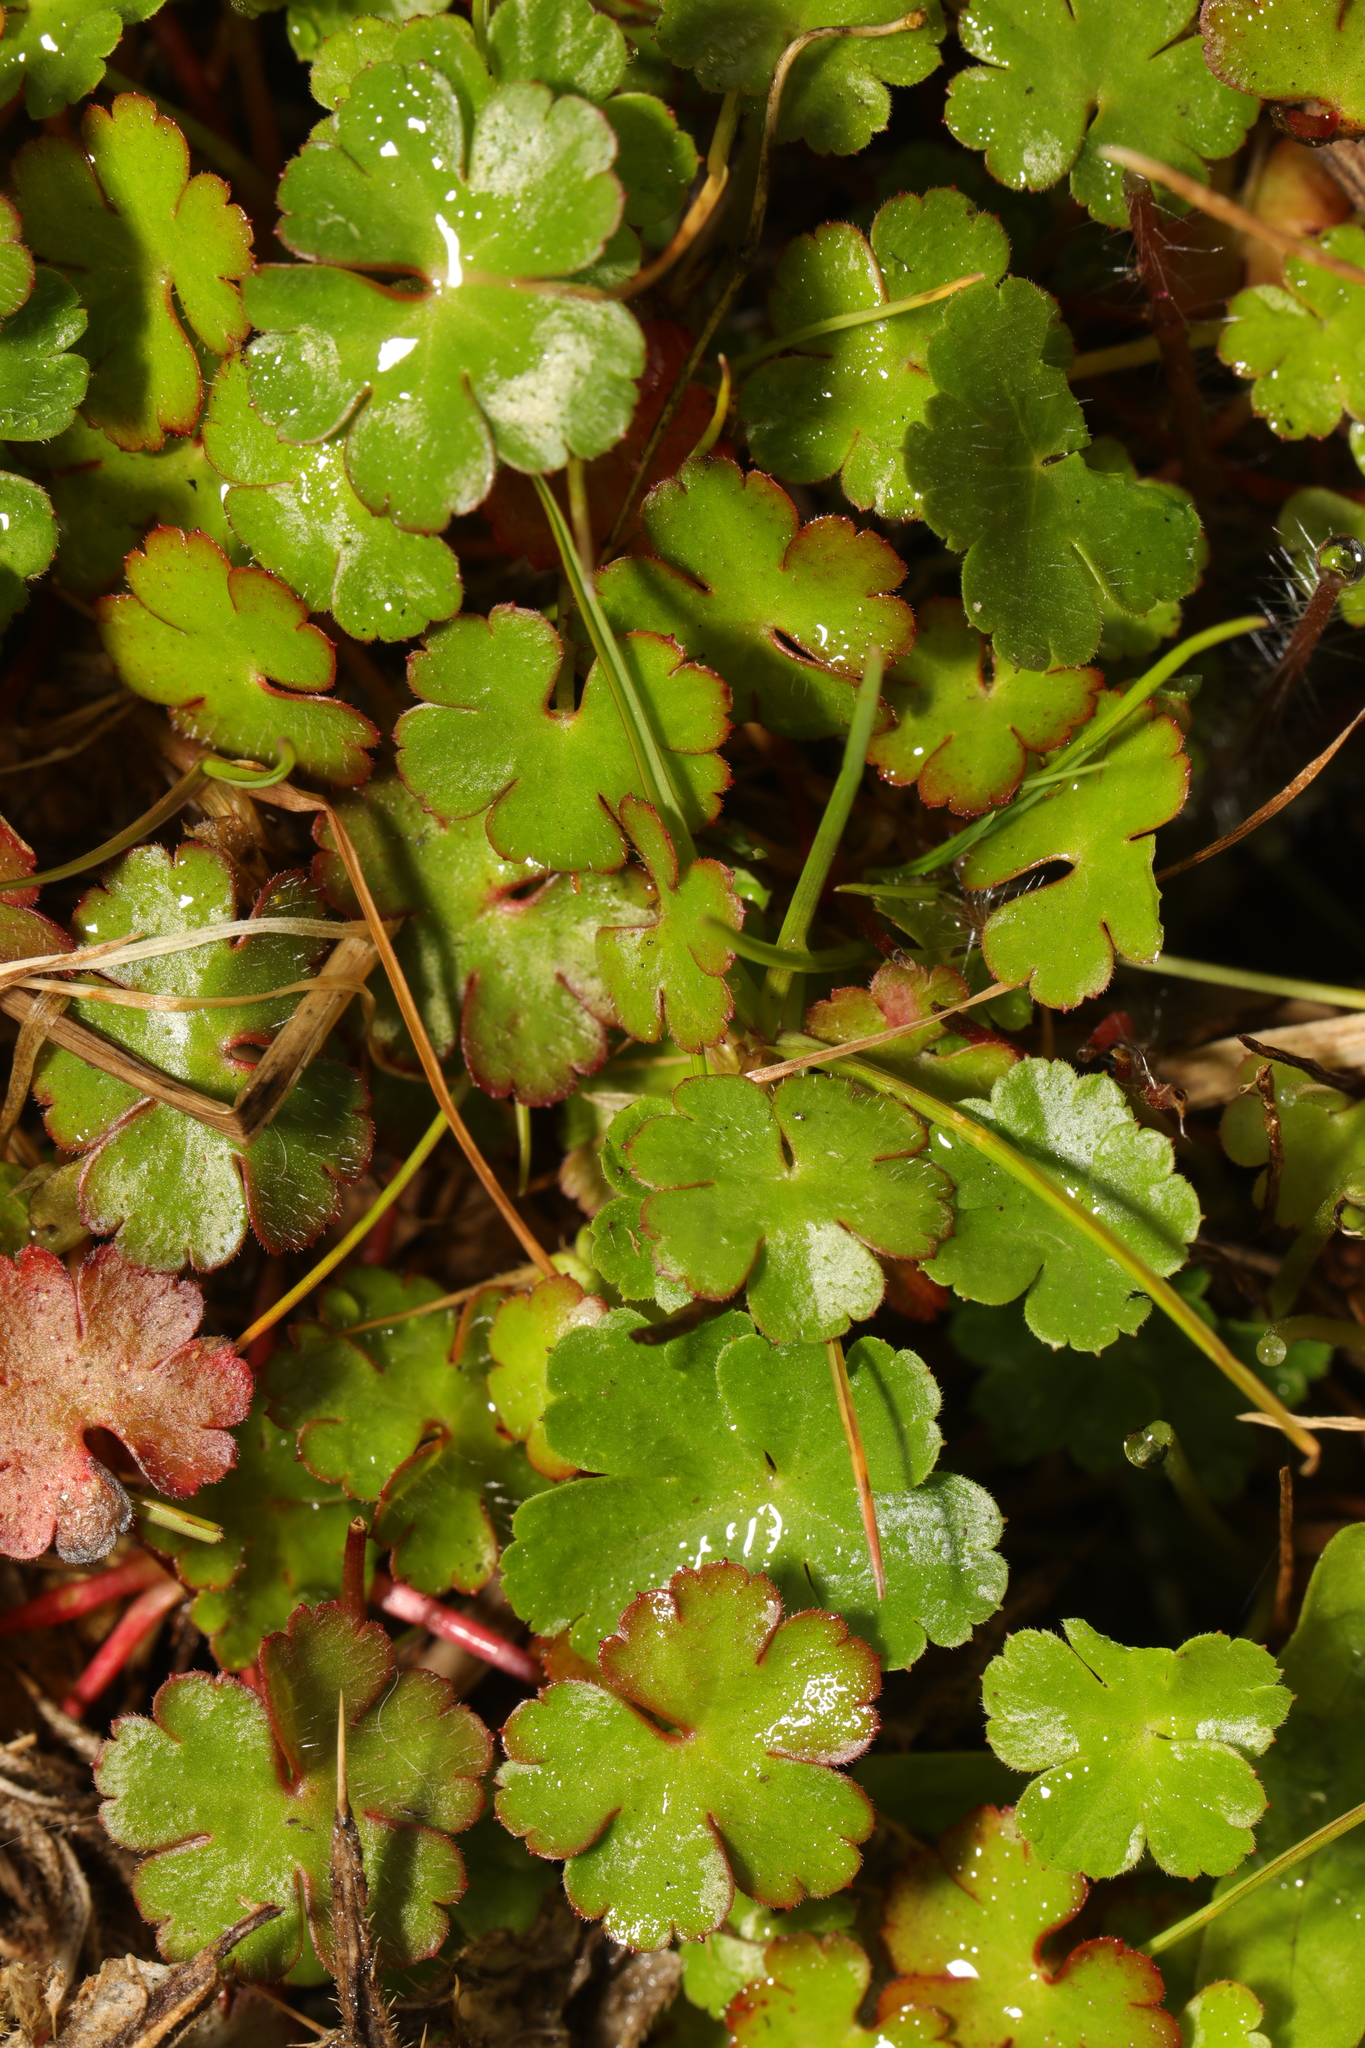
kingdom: Plantae
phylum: Tracheophyta
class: Magnoliopsida
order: Geraniales
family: Geraniaceae
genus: Geranium
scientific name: Geranium lucidum
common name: Shining crane's-bill
